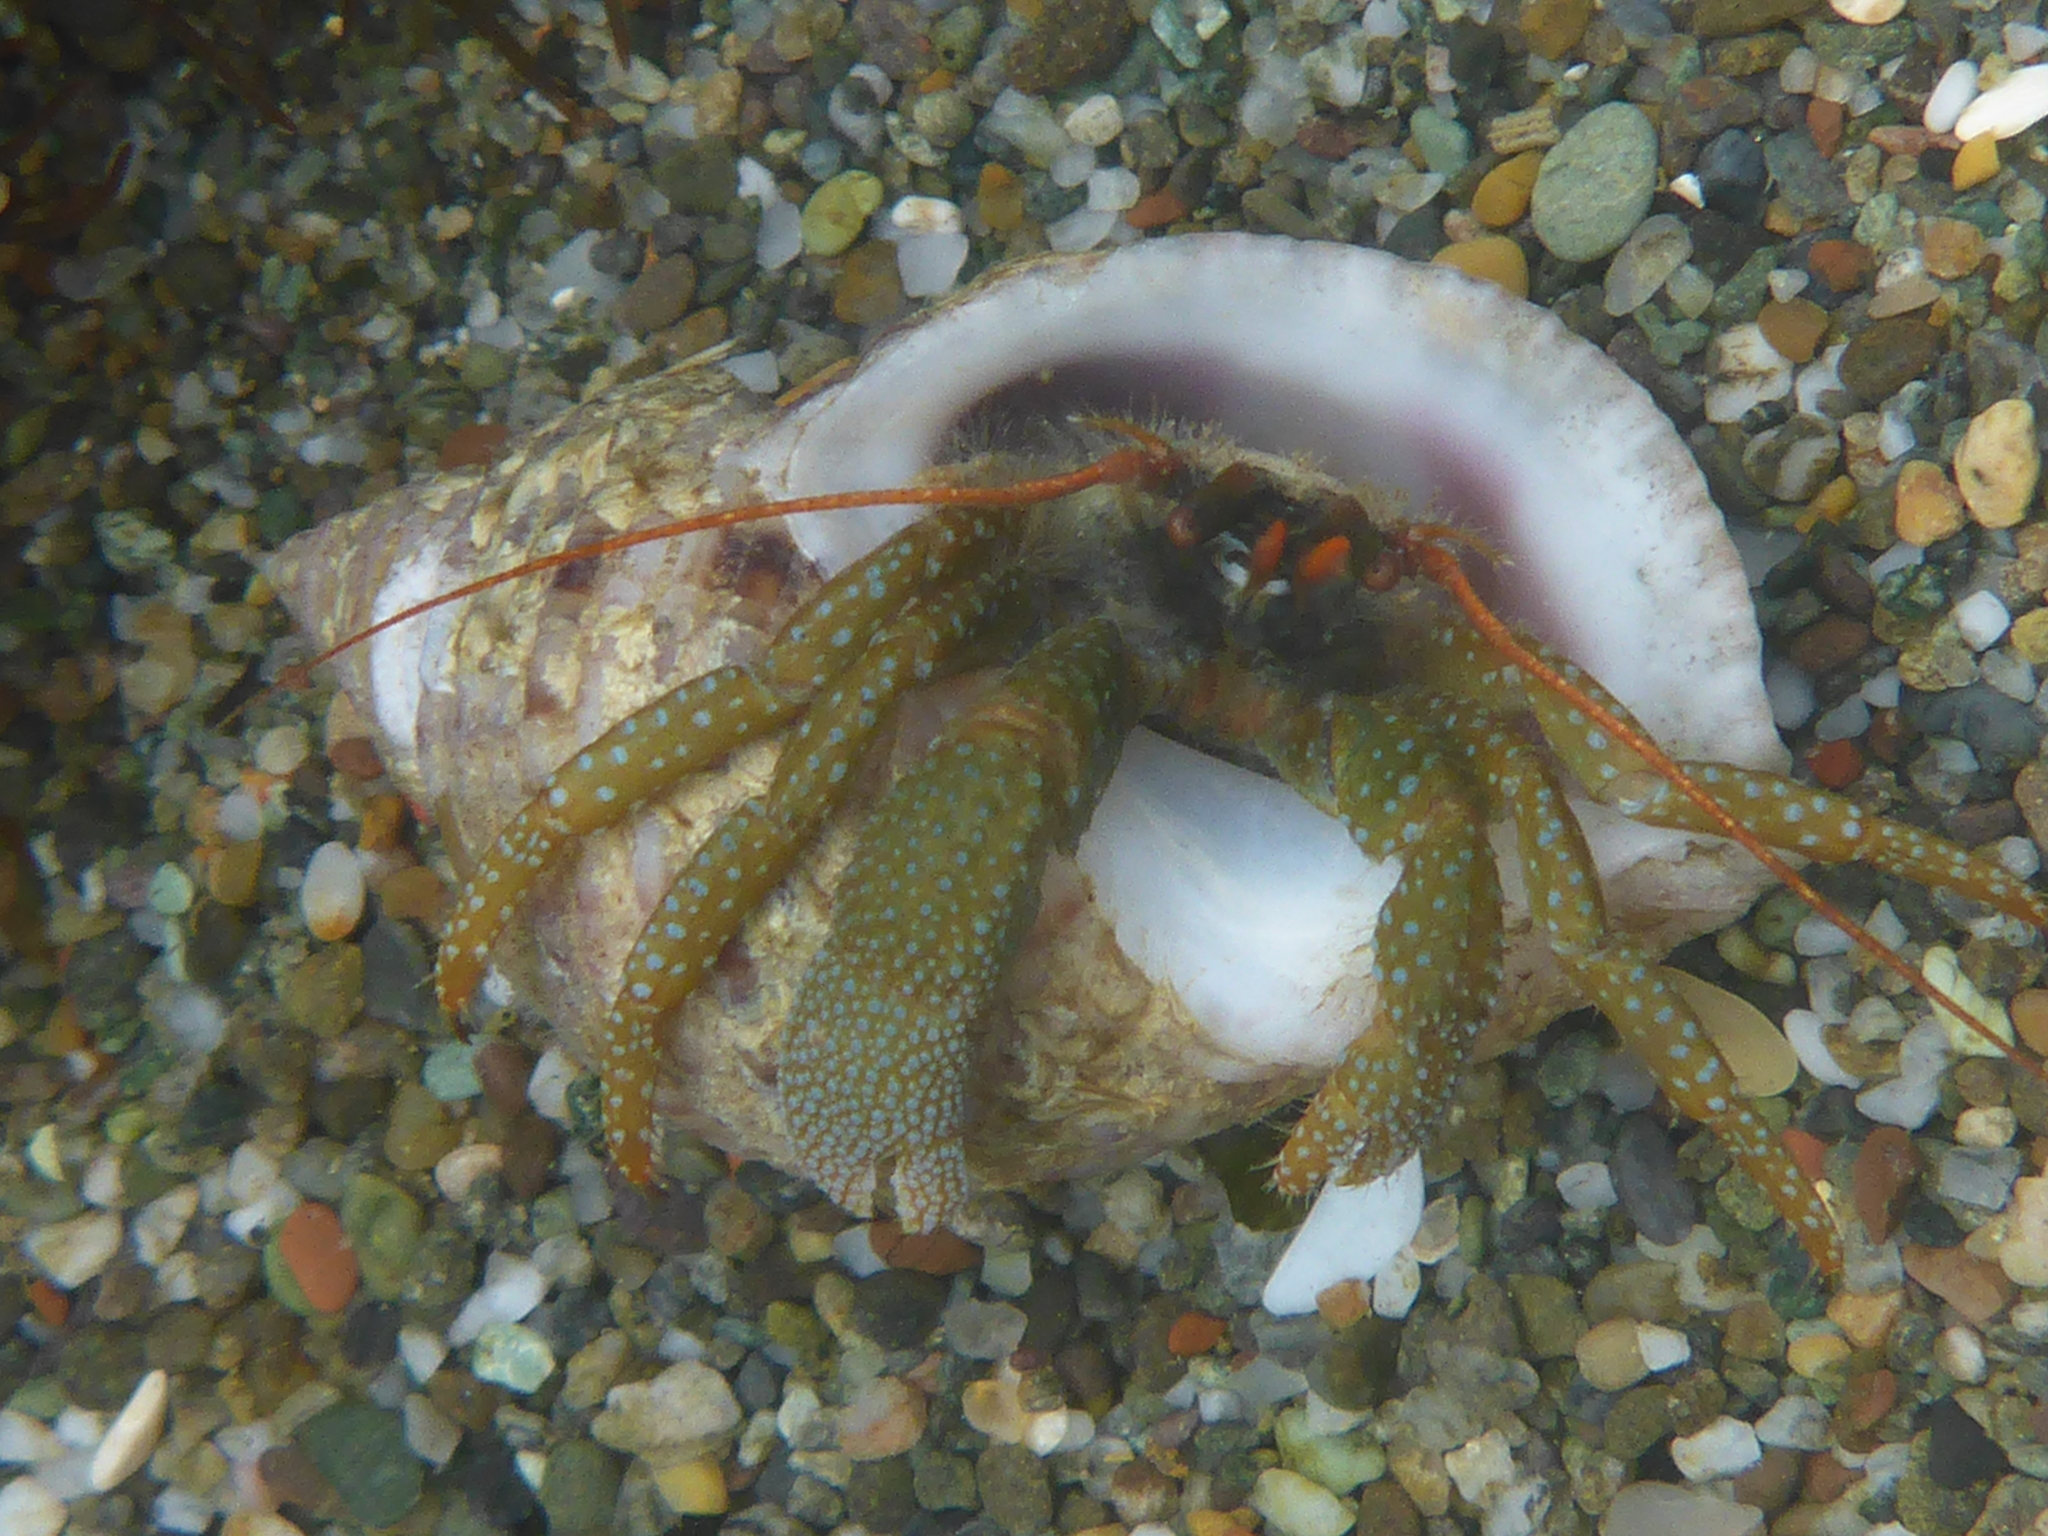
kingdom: Animalia
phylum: Arthropoda
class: Malacostraca
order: Decapoda
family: Paguridae
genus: Pagurus
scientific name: Pagurus granosimanus
